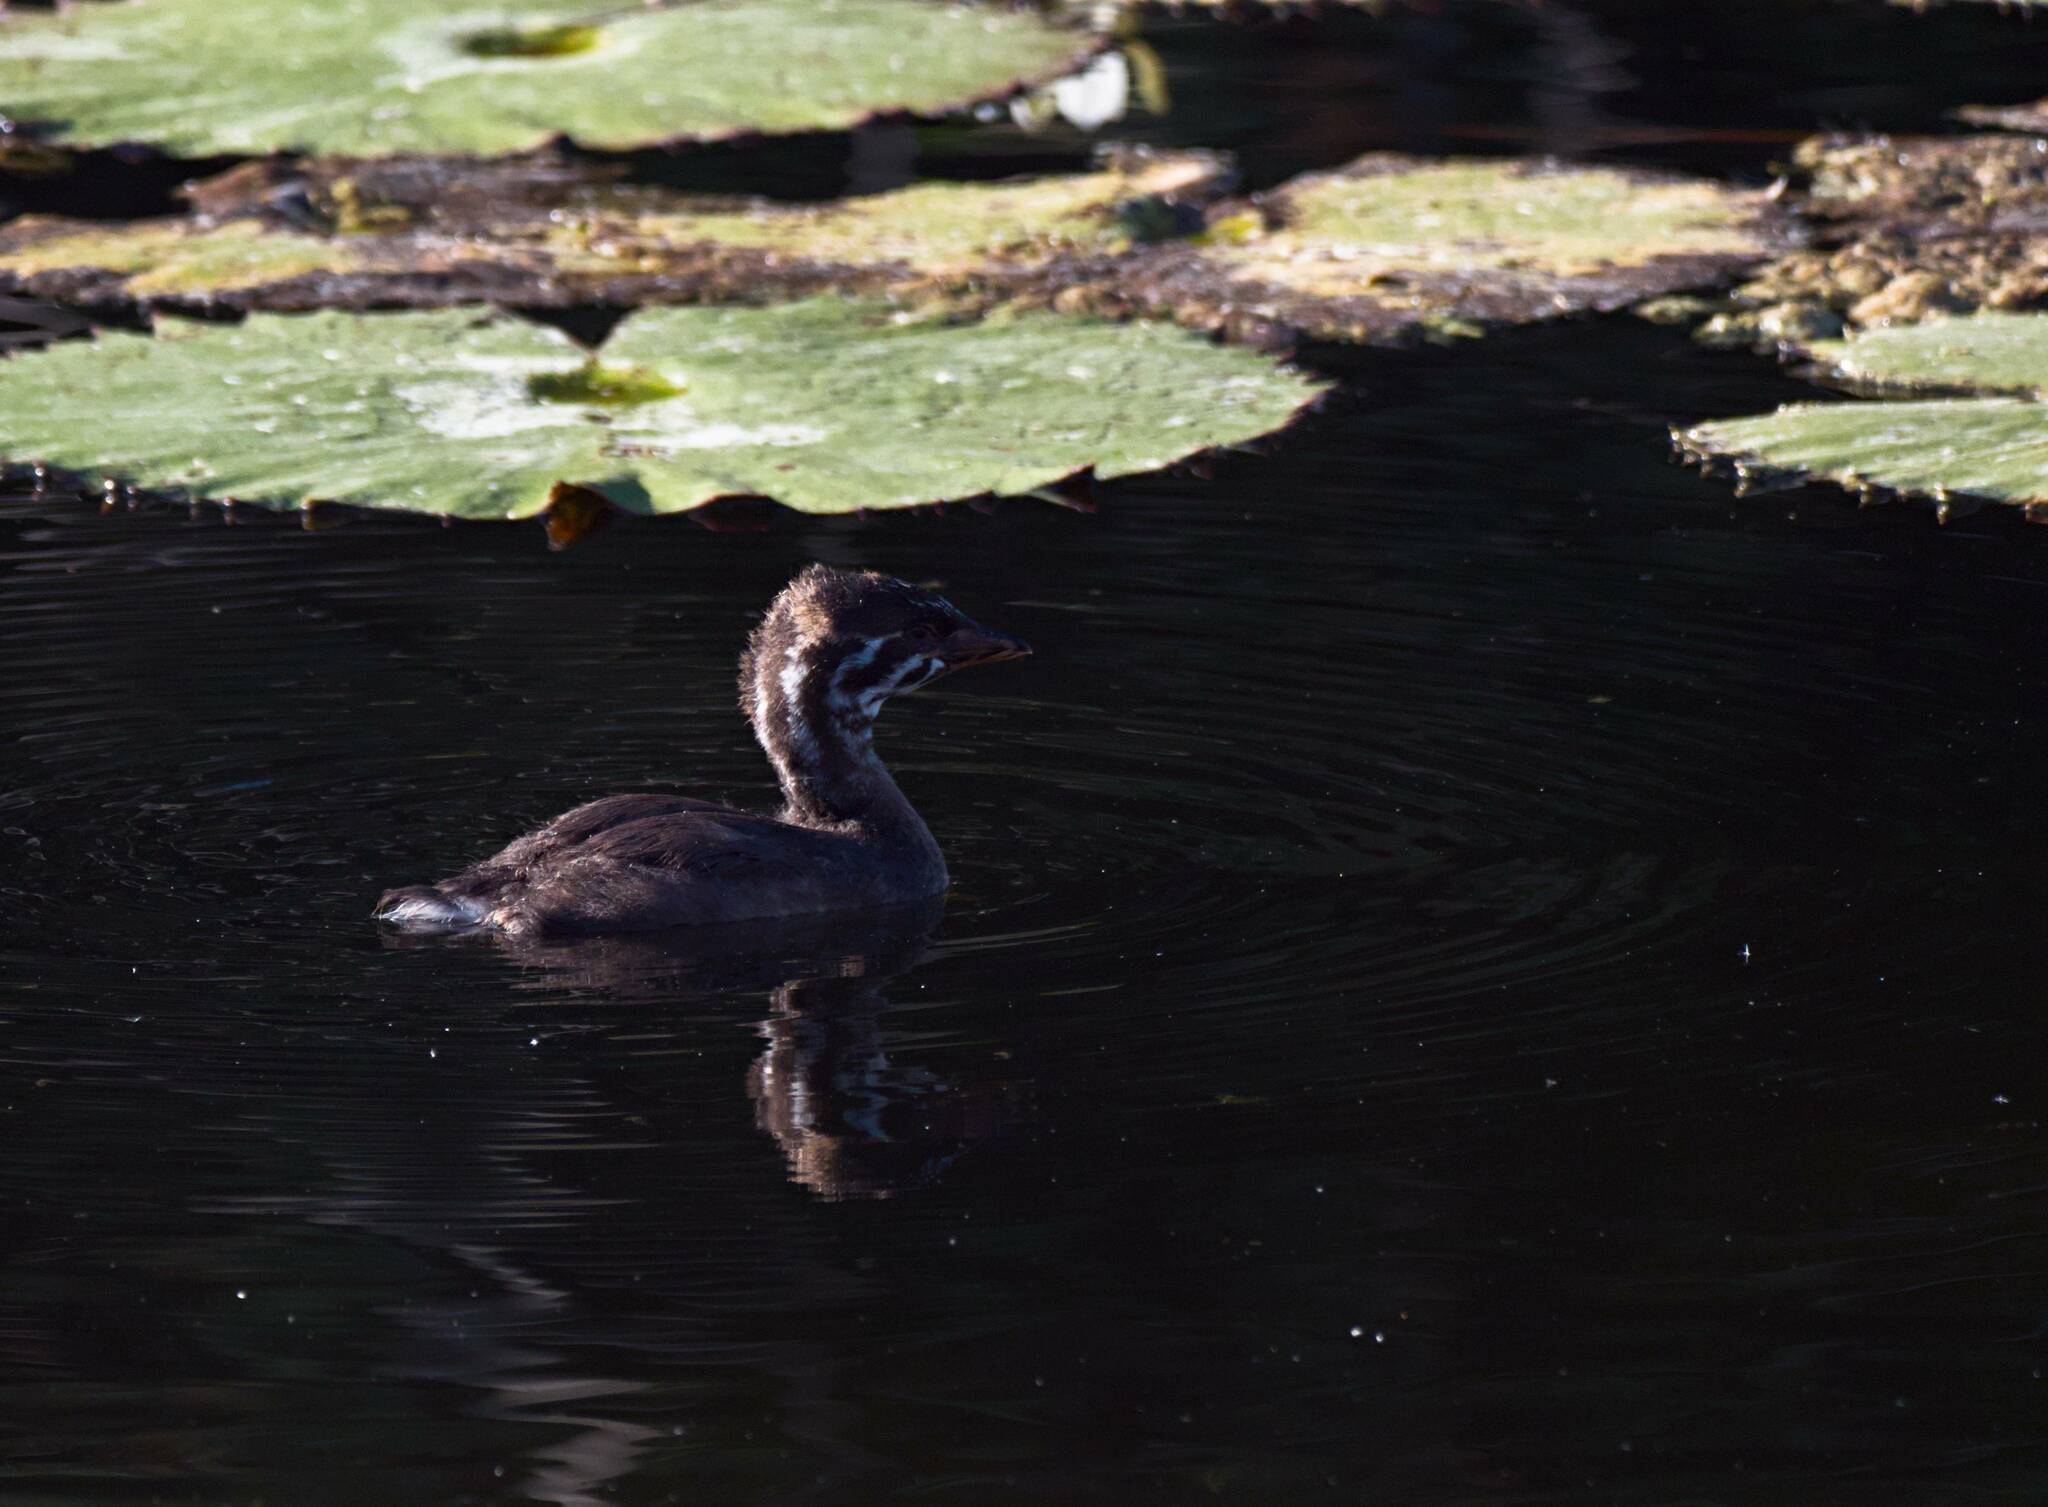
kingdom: Animalia
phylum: Chordata
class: Aves
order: Podicipediformes
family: Podicipedidae
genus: Podilymbus
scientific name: Podilymbus podiceps
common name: Pied-billed grebe
